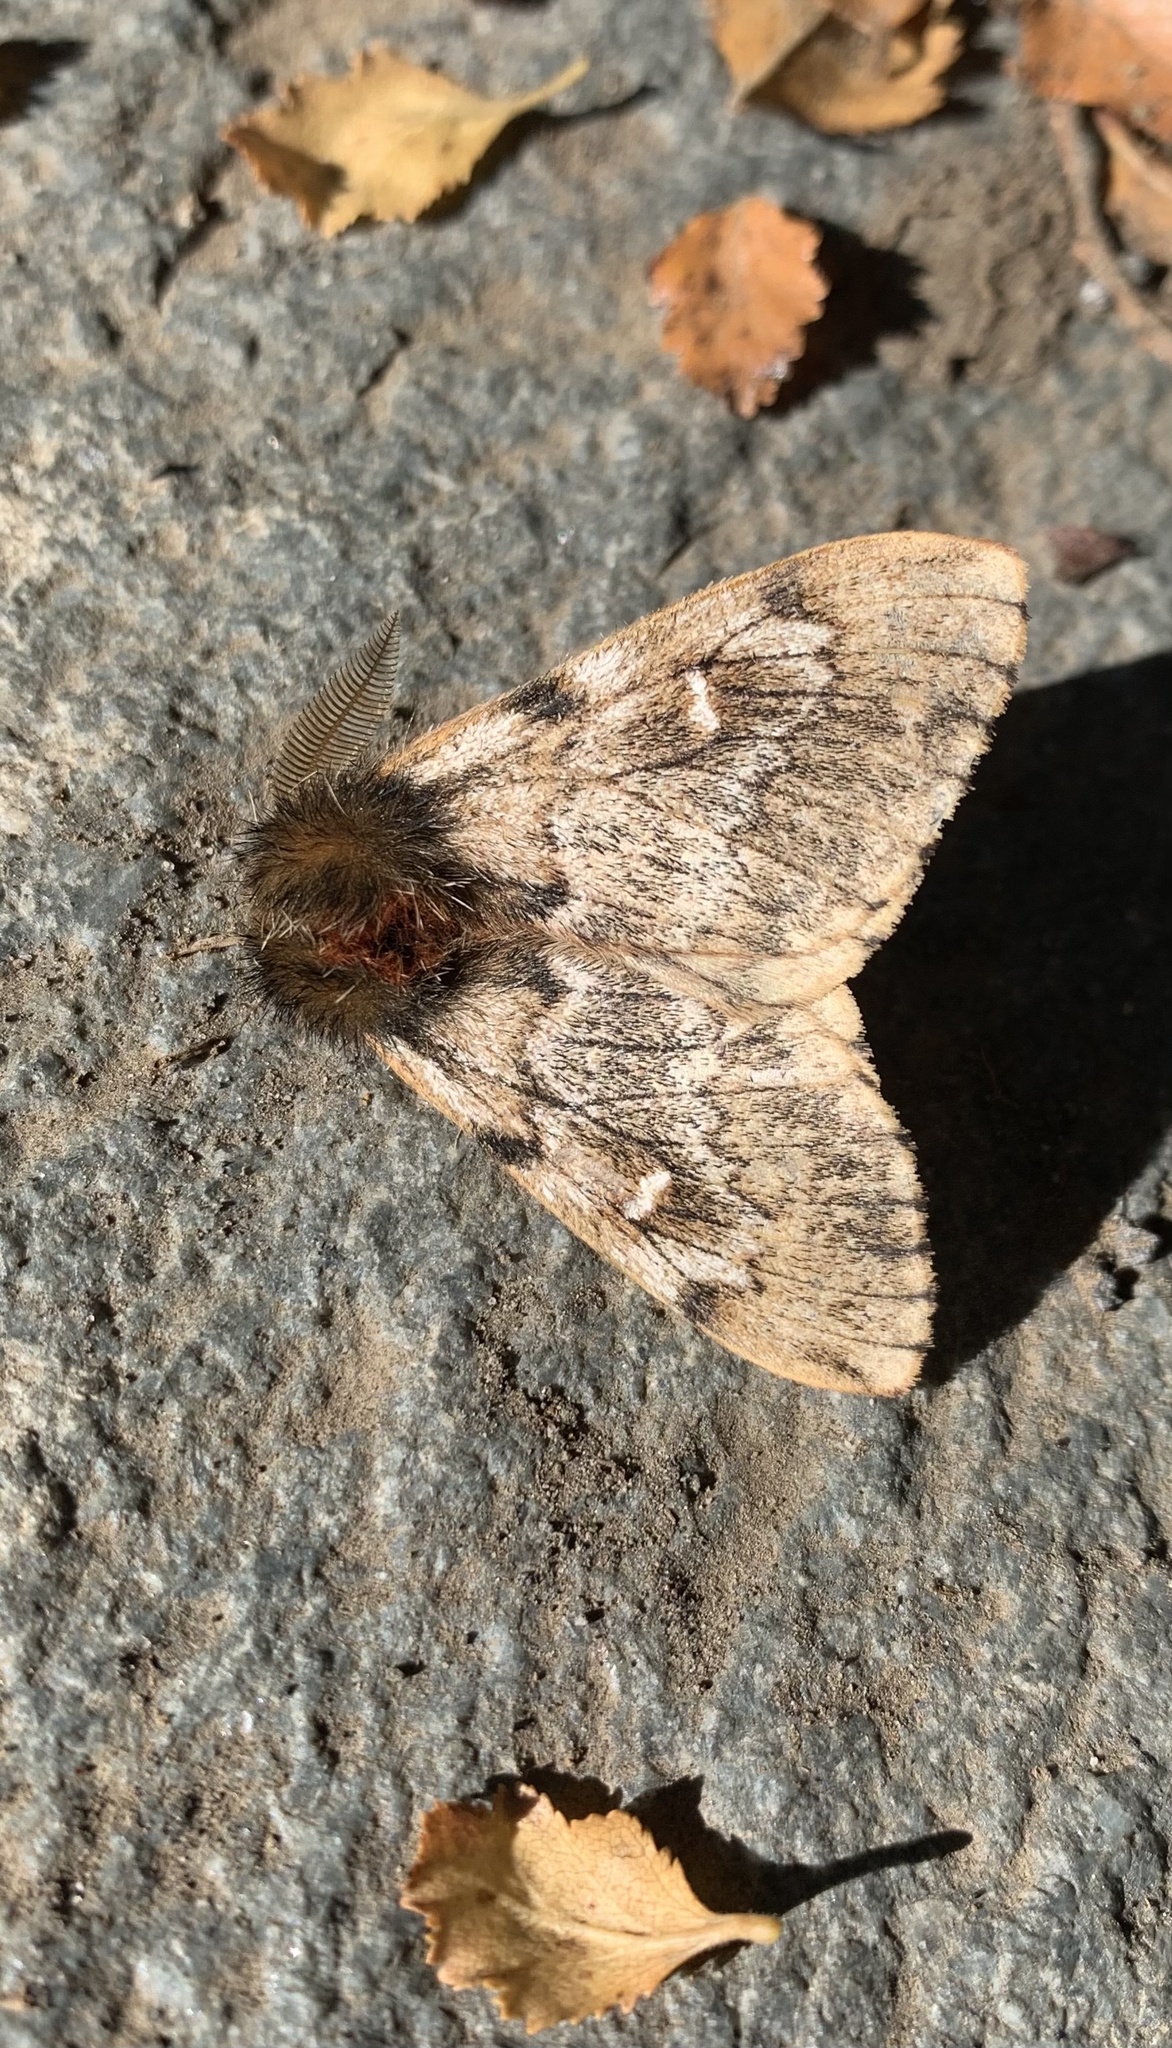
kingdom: Animalia
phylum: Arthropoda
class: Insecta
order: Lepidoptera
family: Saturniidae
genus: Ormiscodes
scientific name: Ormiscodes nigrosignata
